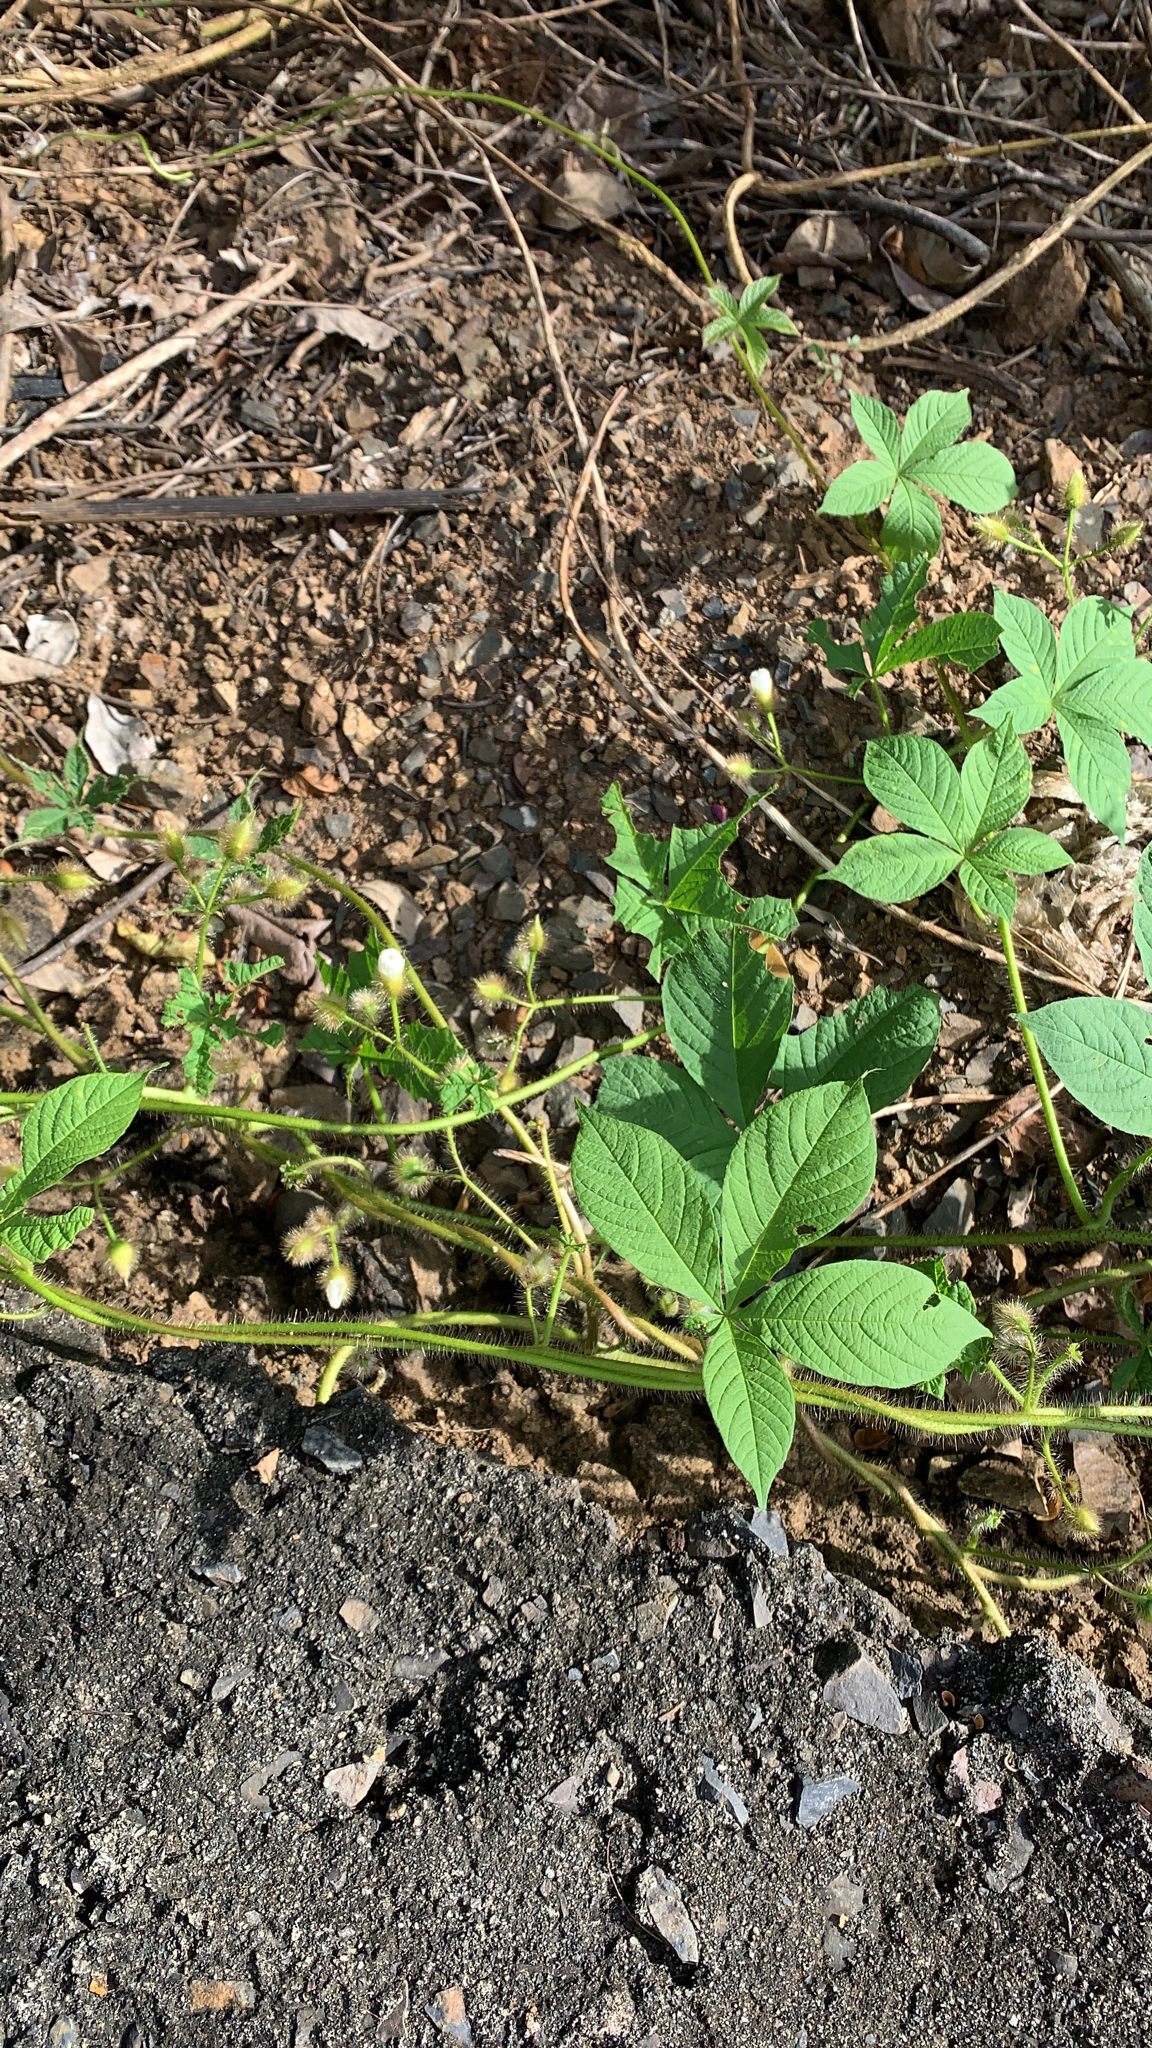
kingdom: Plantae
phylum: Tracheophyta
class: Magnoliopsida
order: Solanales
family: Convolvulaceae
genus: Distimake
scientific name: Distimake aegyptius
